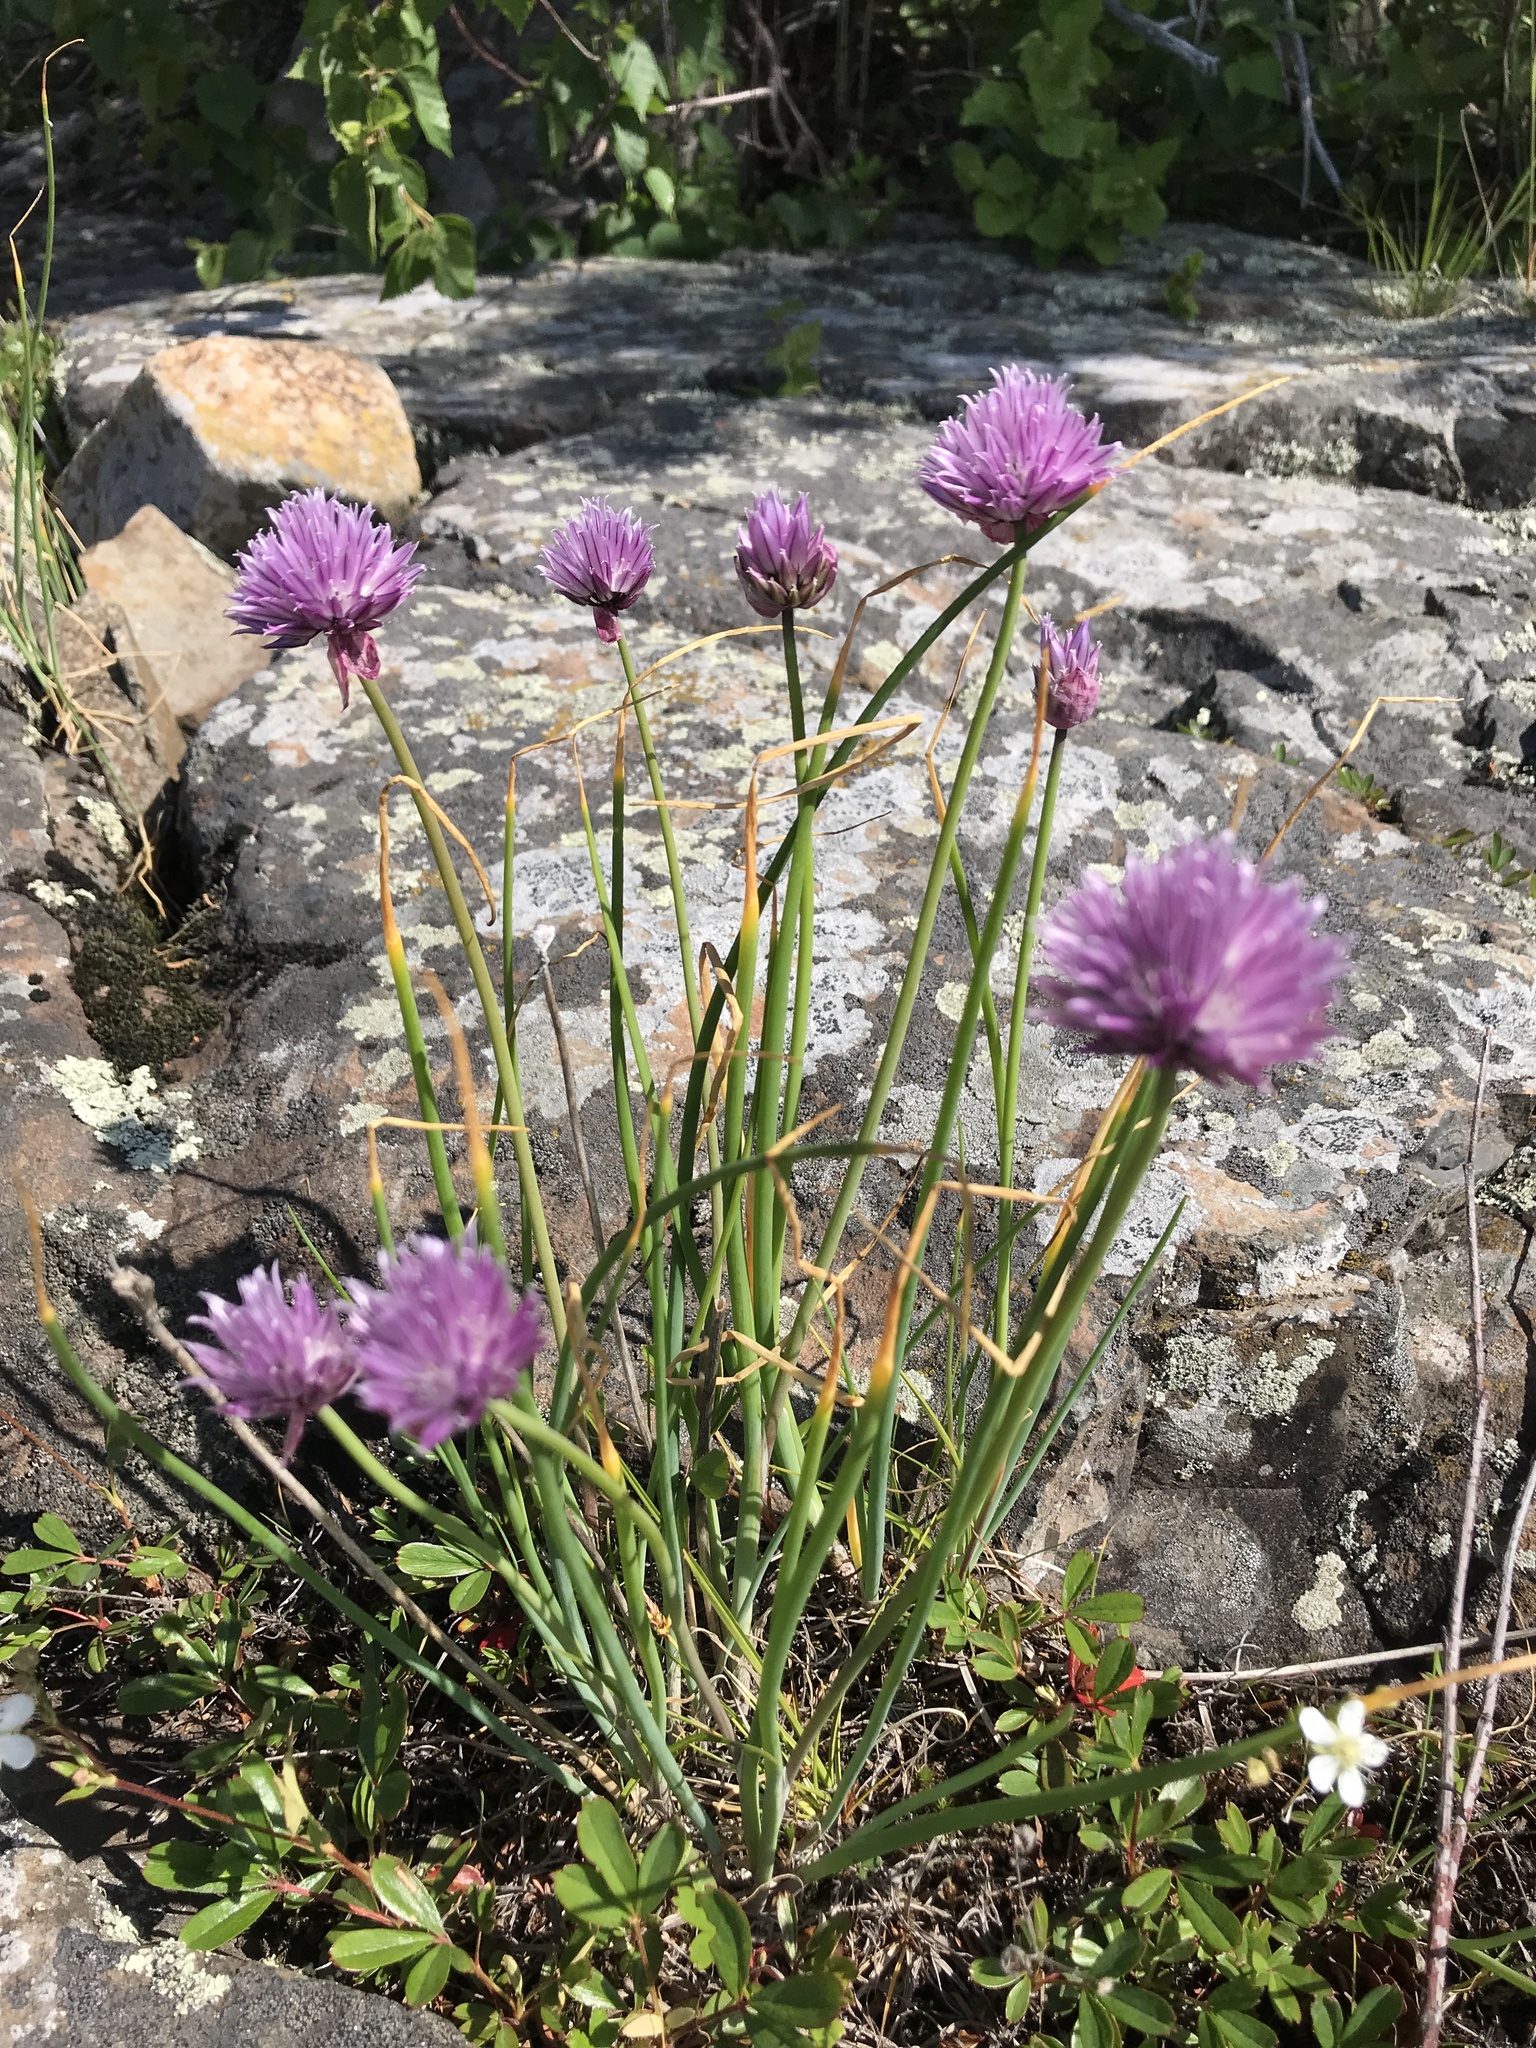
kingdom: Plantae
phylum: Tracheophyta
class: Liliopsida
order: Asparagales
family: Amaryllidaceae
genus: Allium
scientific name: Allium schoenoprasum
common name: Chives
